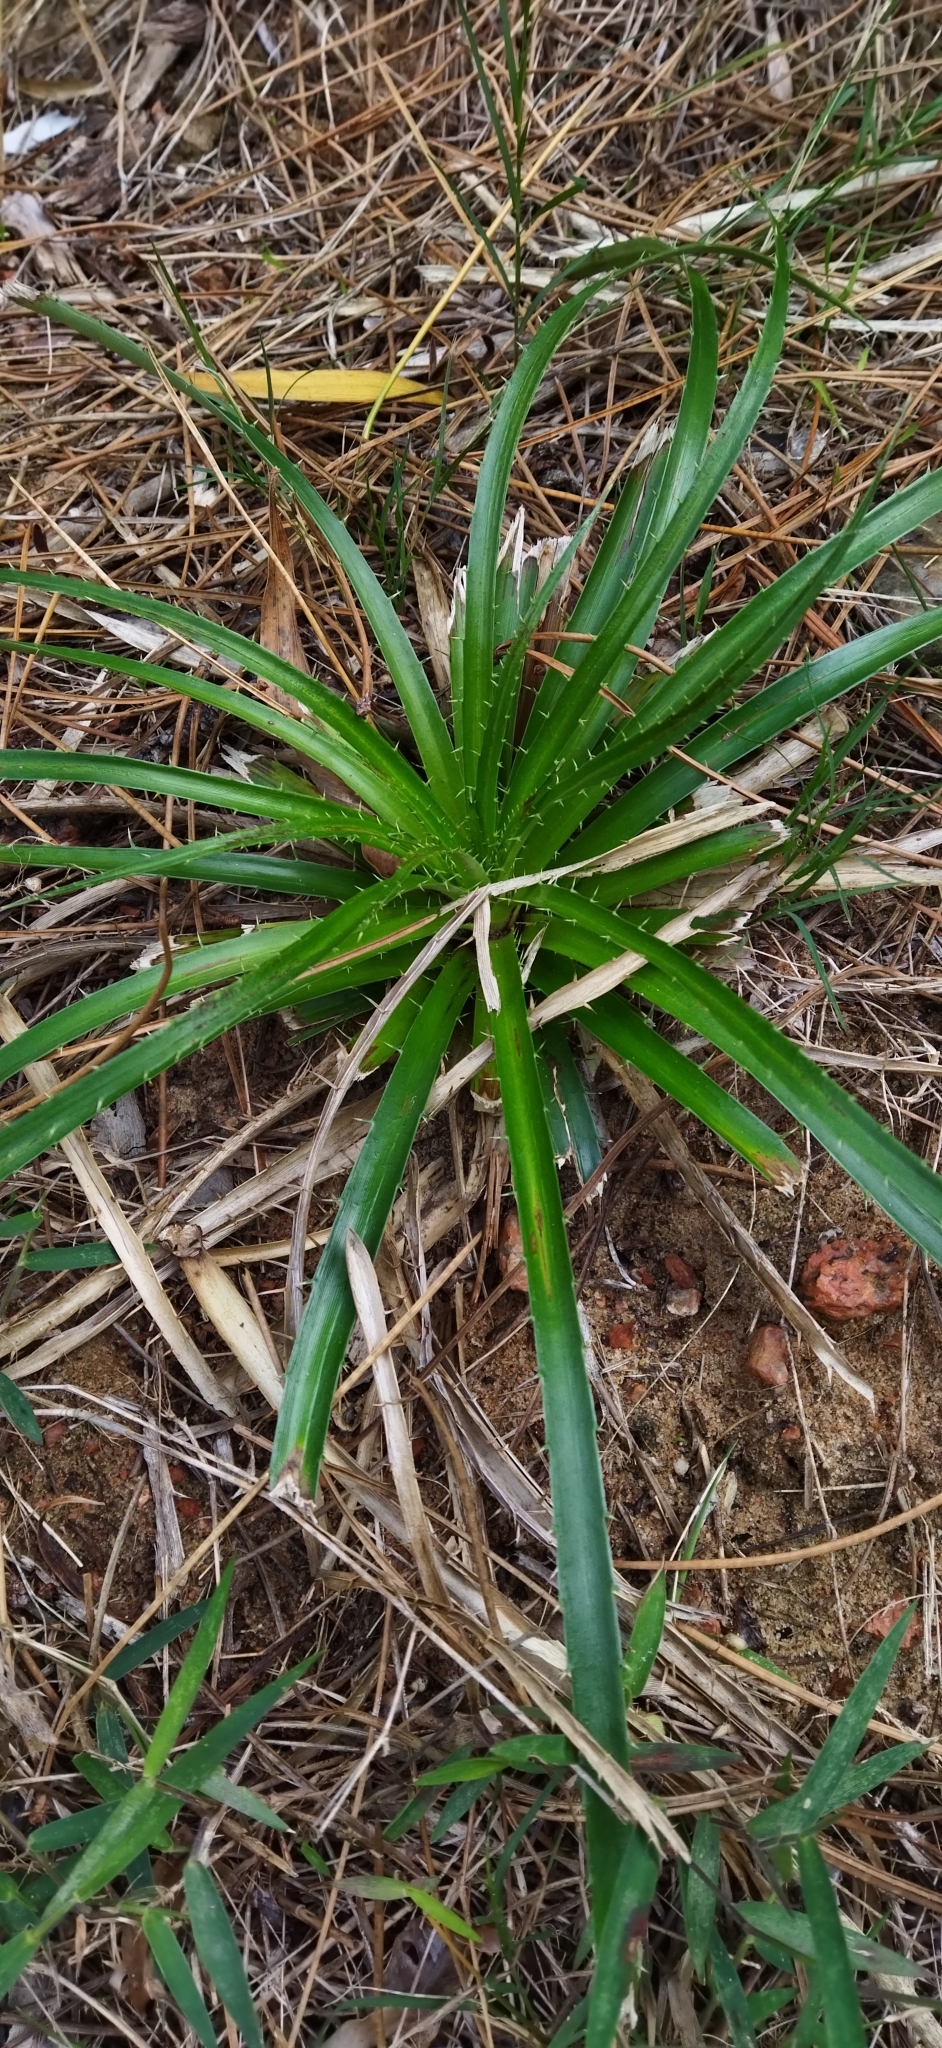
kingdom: Plantae
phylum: Tracheophyta
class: Magnoliopsida
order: Apiales
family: Apiaceae
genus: Eryngium
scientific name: Eryngium horridum
